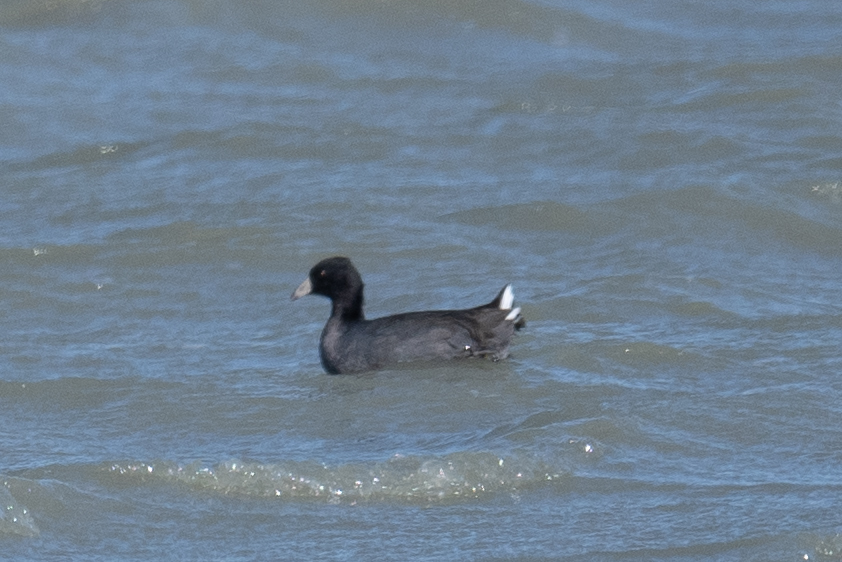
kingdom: Animalia
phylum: Chordata
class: Aves
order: Gruiformes
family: Rallidae
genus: Fulica
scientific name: Fulica americana
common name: American coot
